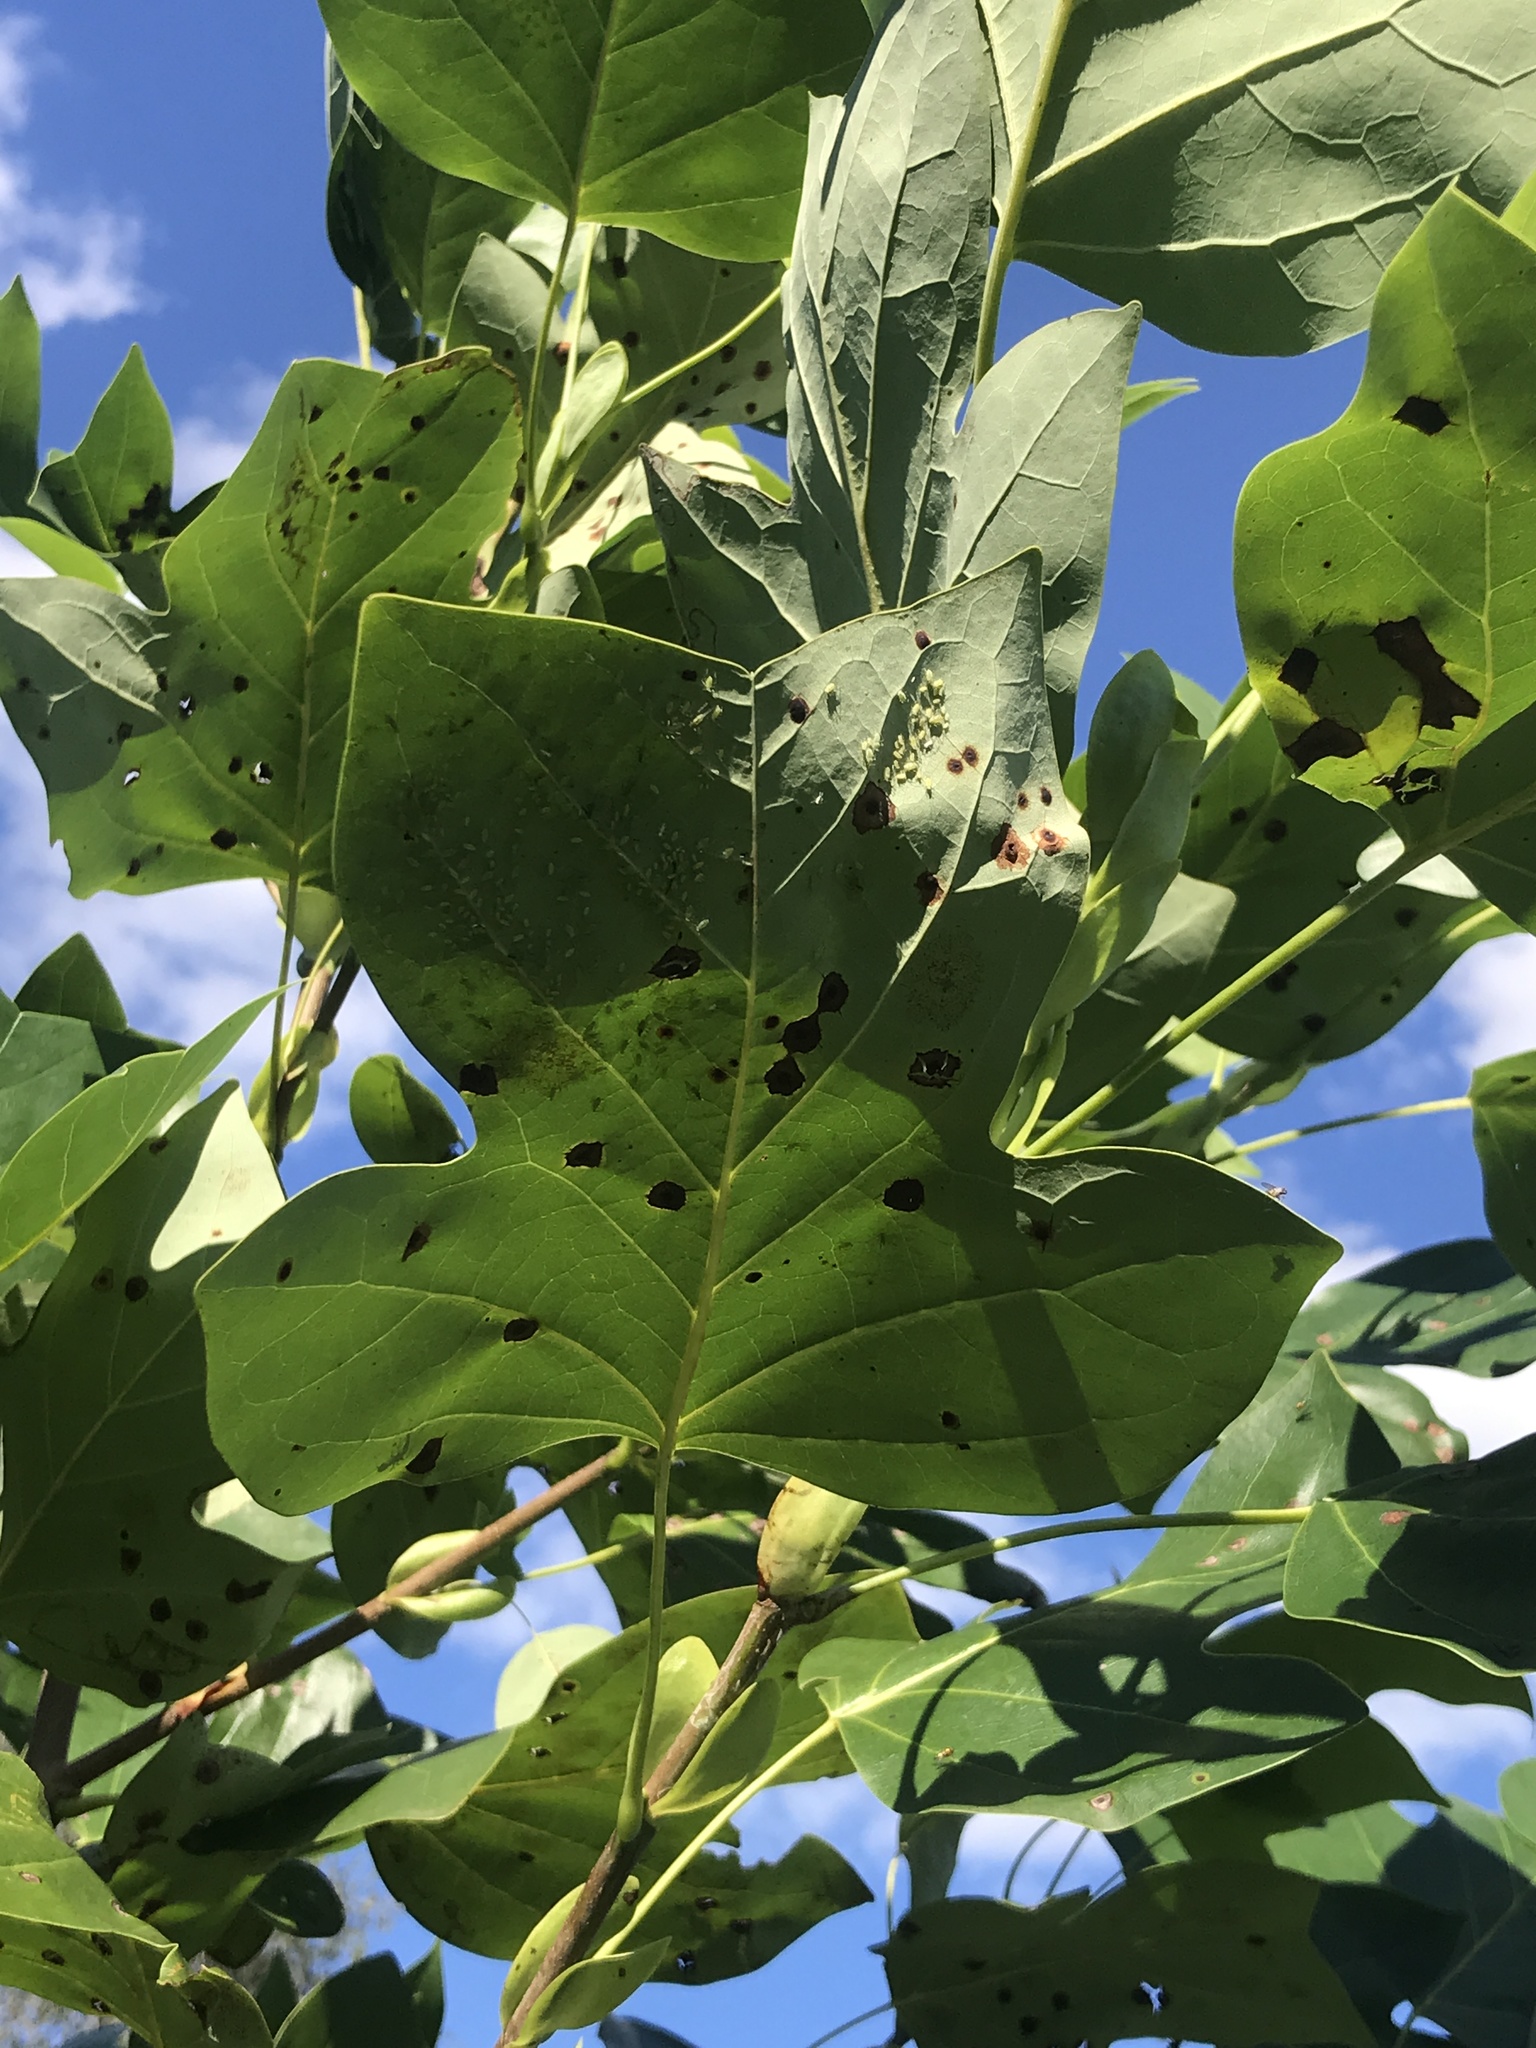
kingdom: Plantae
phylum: Tracheophyta
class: Magnoliopsida
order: Magnoliales
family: Magnoliaceae
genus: Liriodendron
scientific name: Liriodendron tulipifera
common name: Tulip tree
